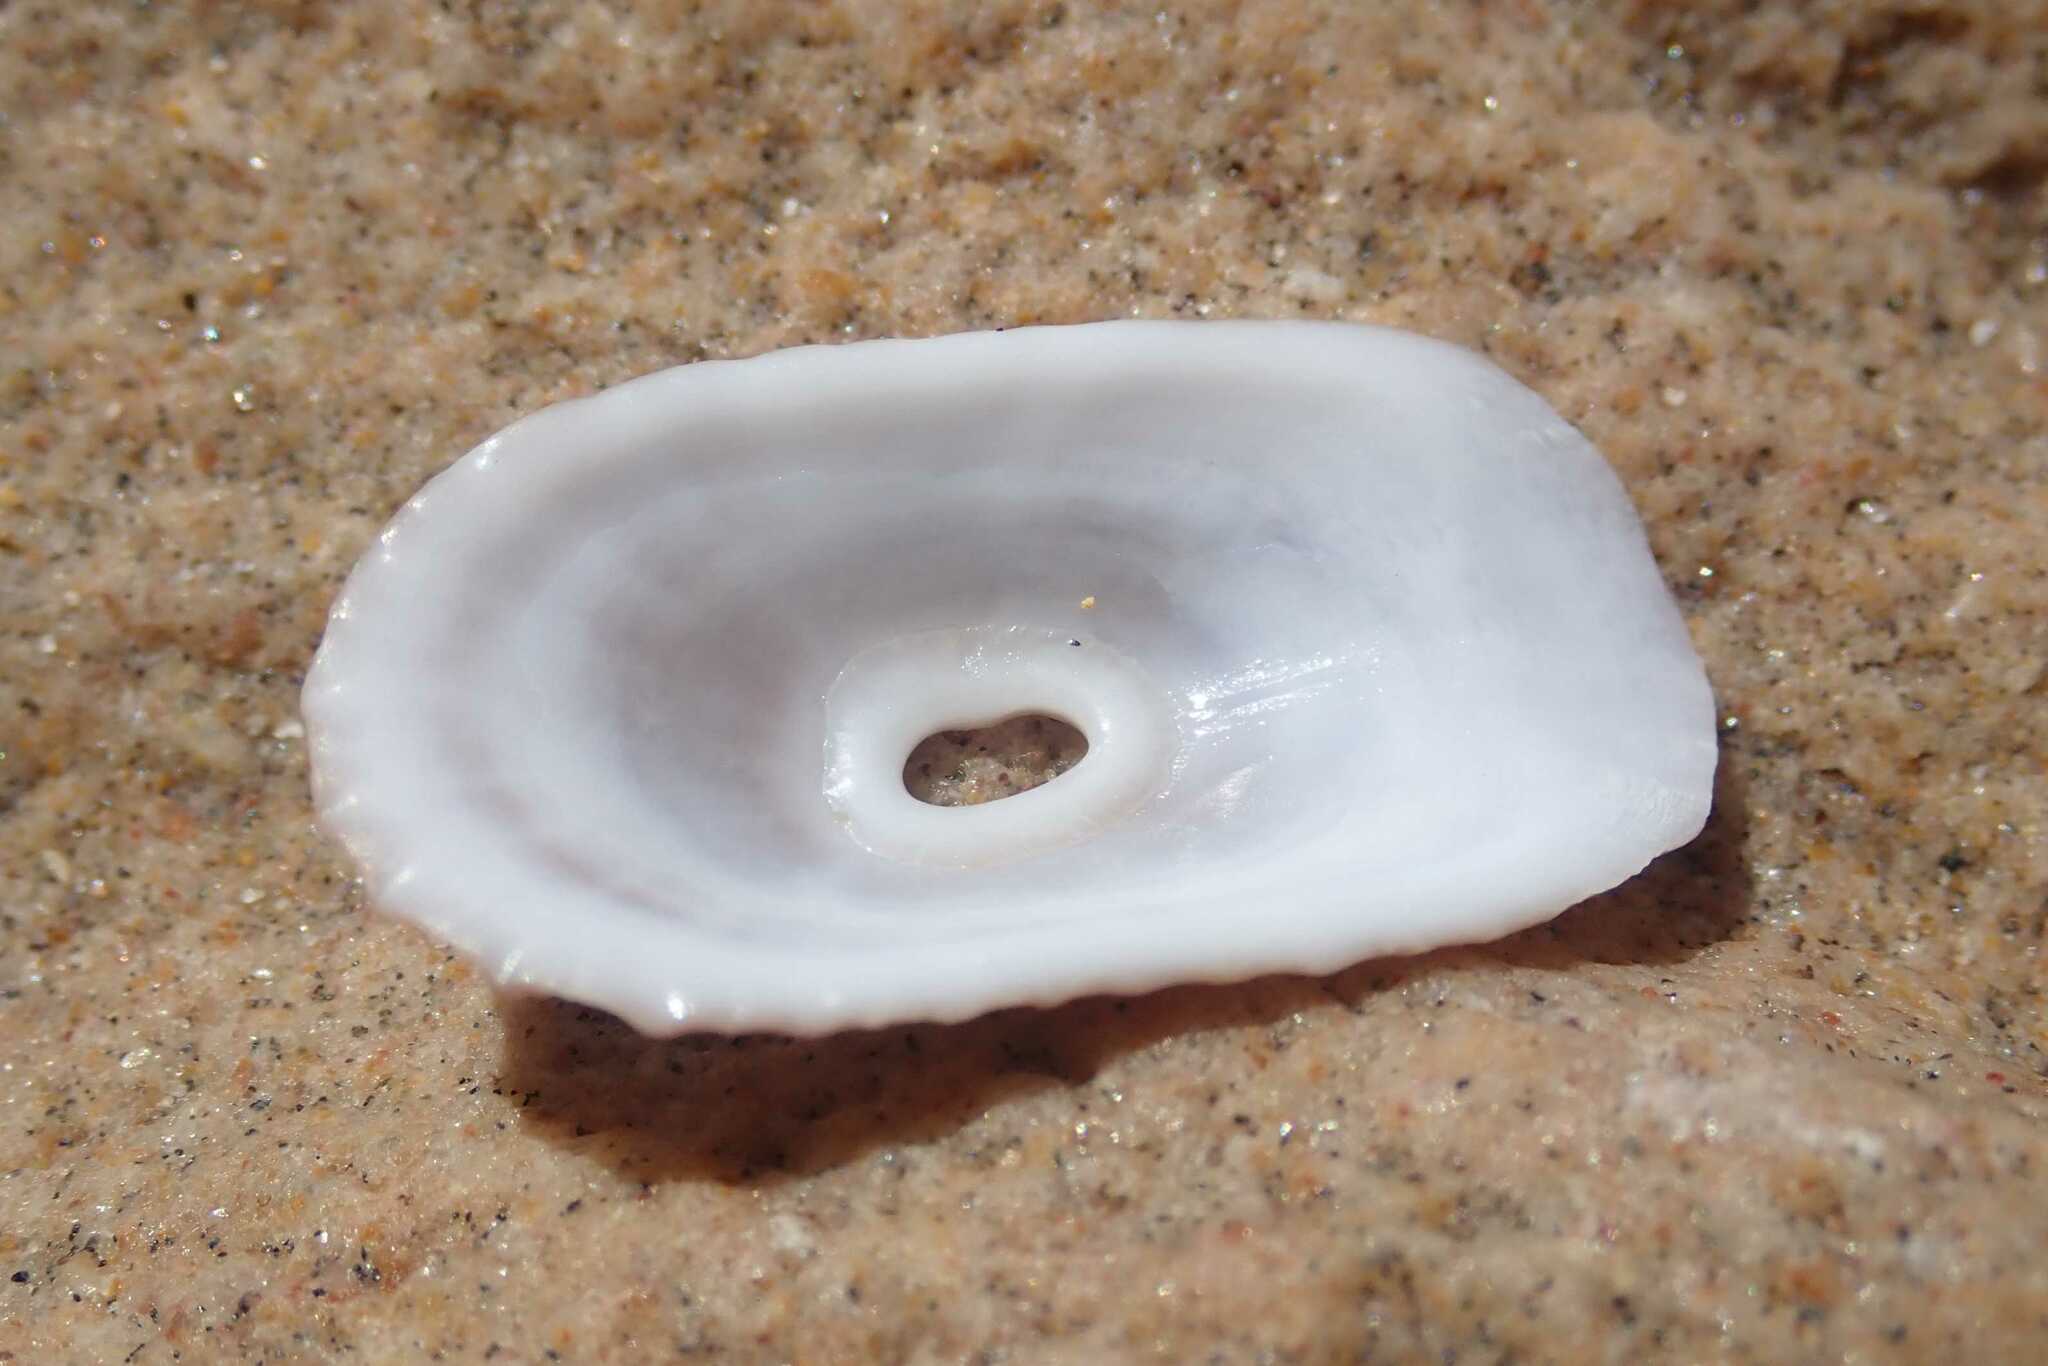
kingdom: Animalia
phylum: Mollusca
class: Gastropoda
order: Lepetellida
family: Fissurellidae
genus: Dendrofissurella
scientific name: Dendrofissurella scutellum
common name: Saddle-shaped keyhole limpet
